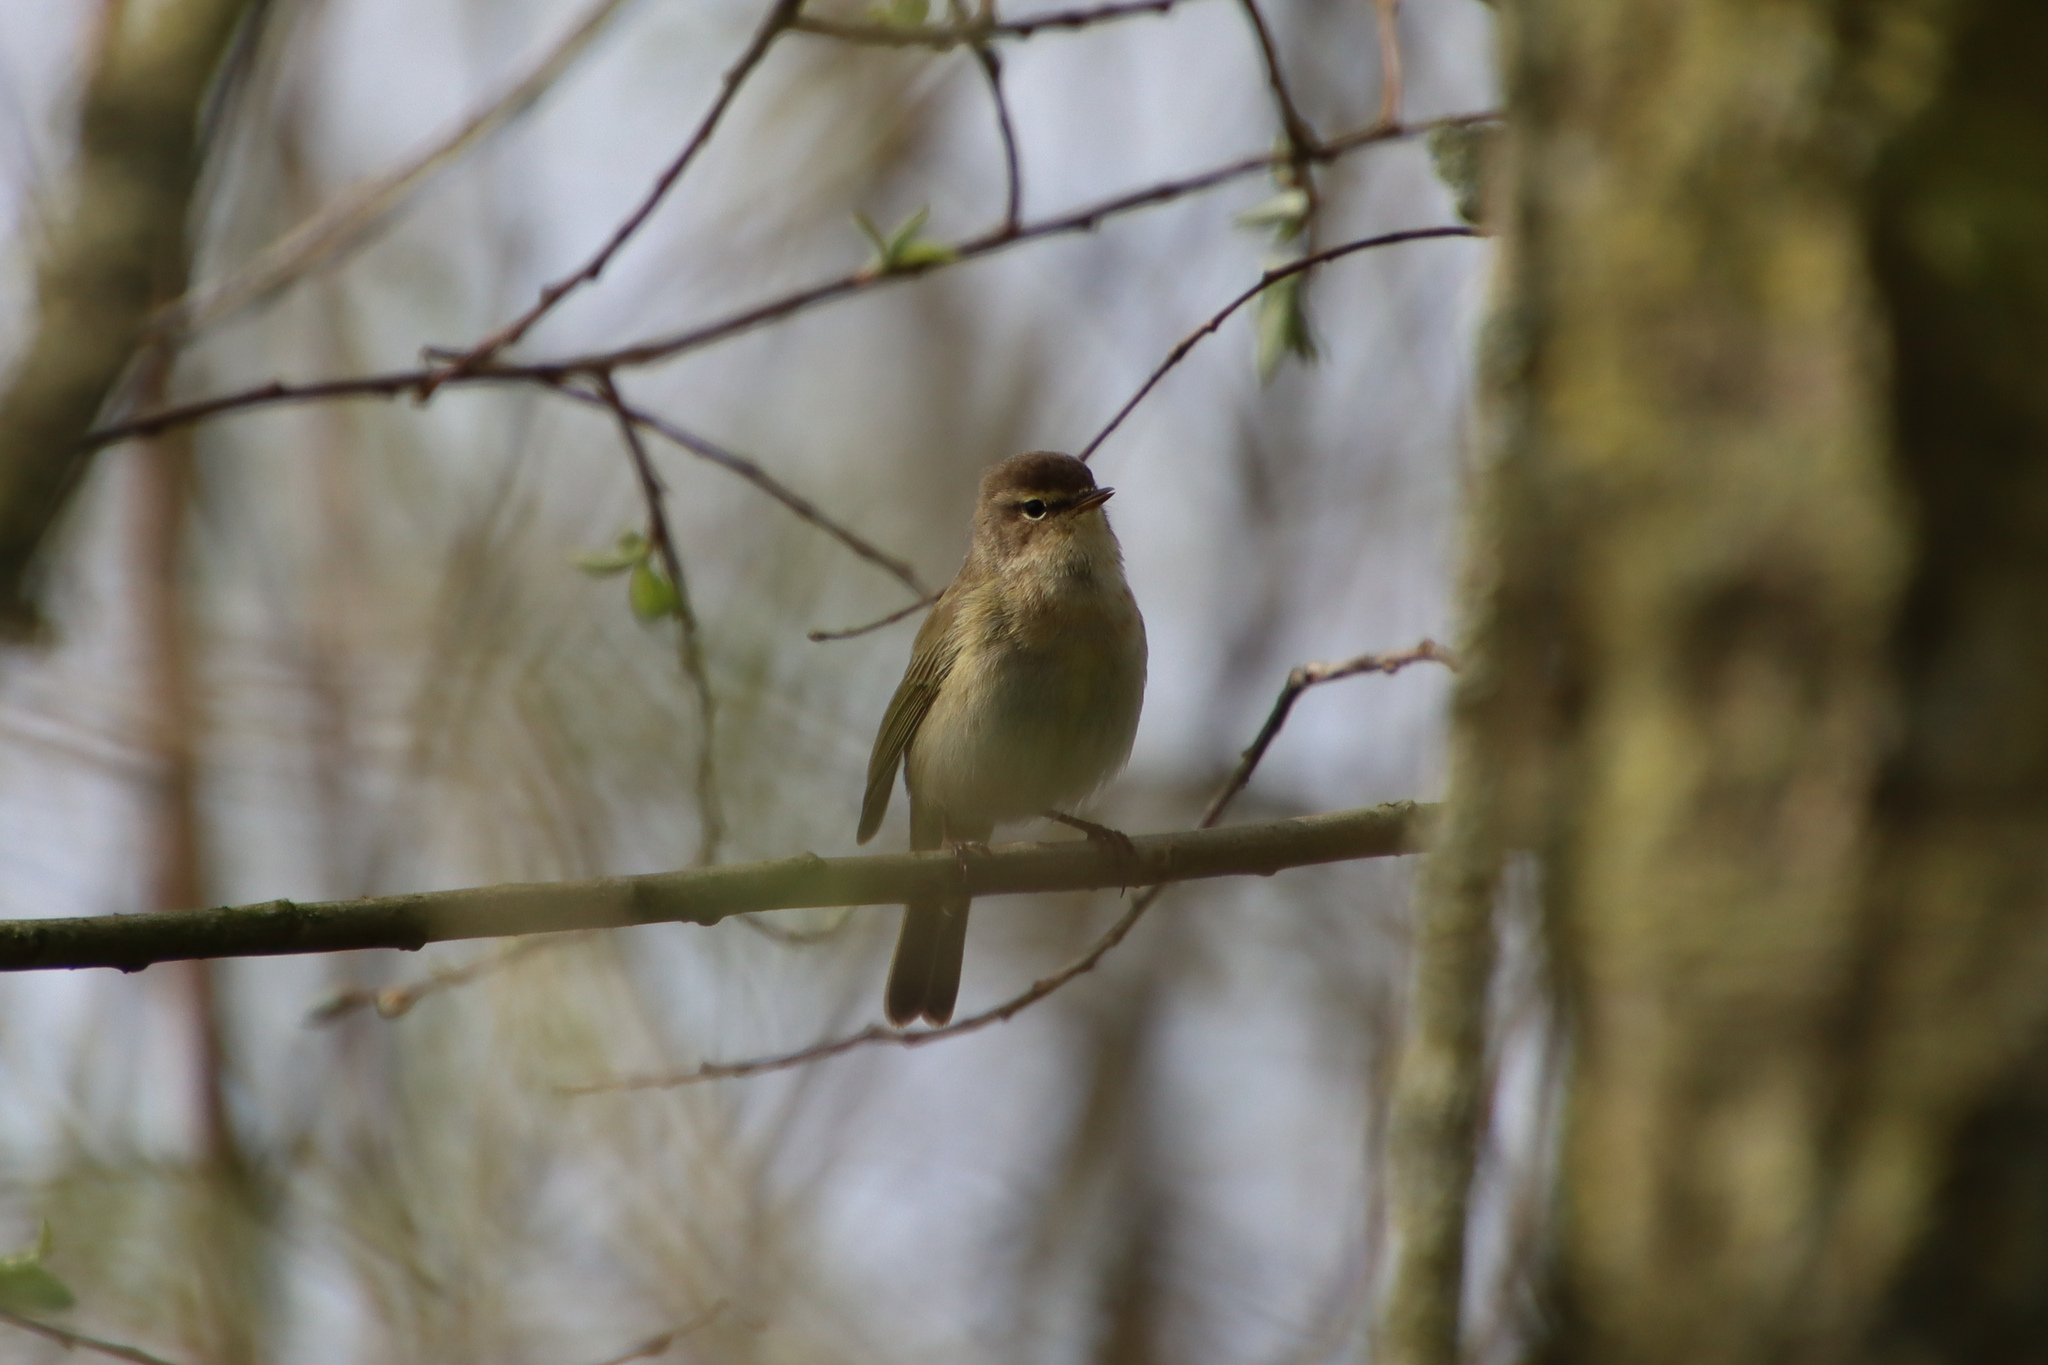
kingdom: Animalia
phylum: Chordata
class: Aves
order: Passeriformes
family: Phylloscopidae
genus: Phylloscopus
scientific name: Phylloscopus collybita
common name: Common chiffchaff
